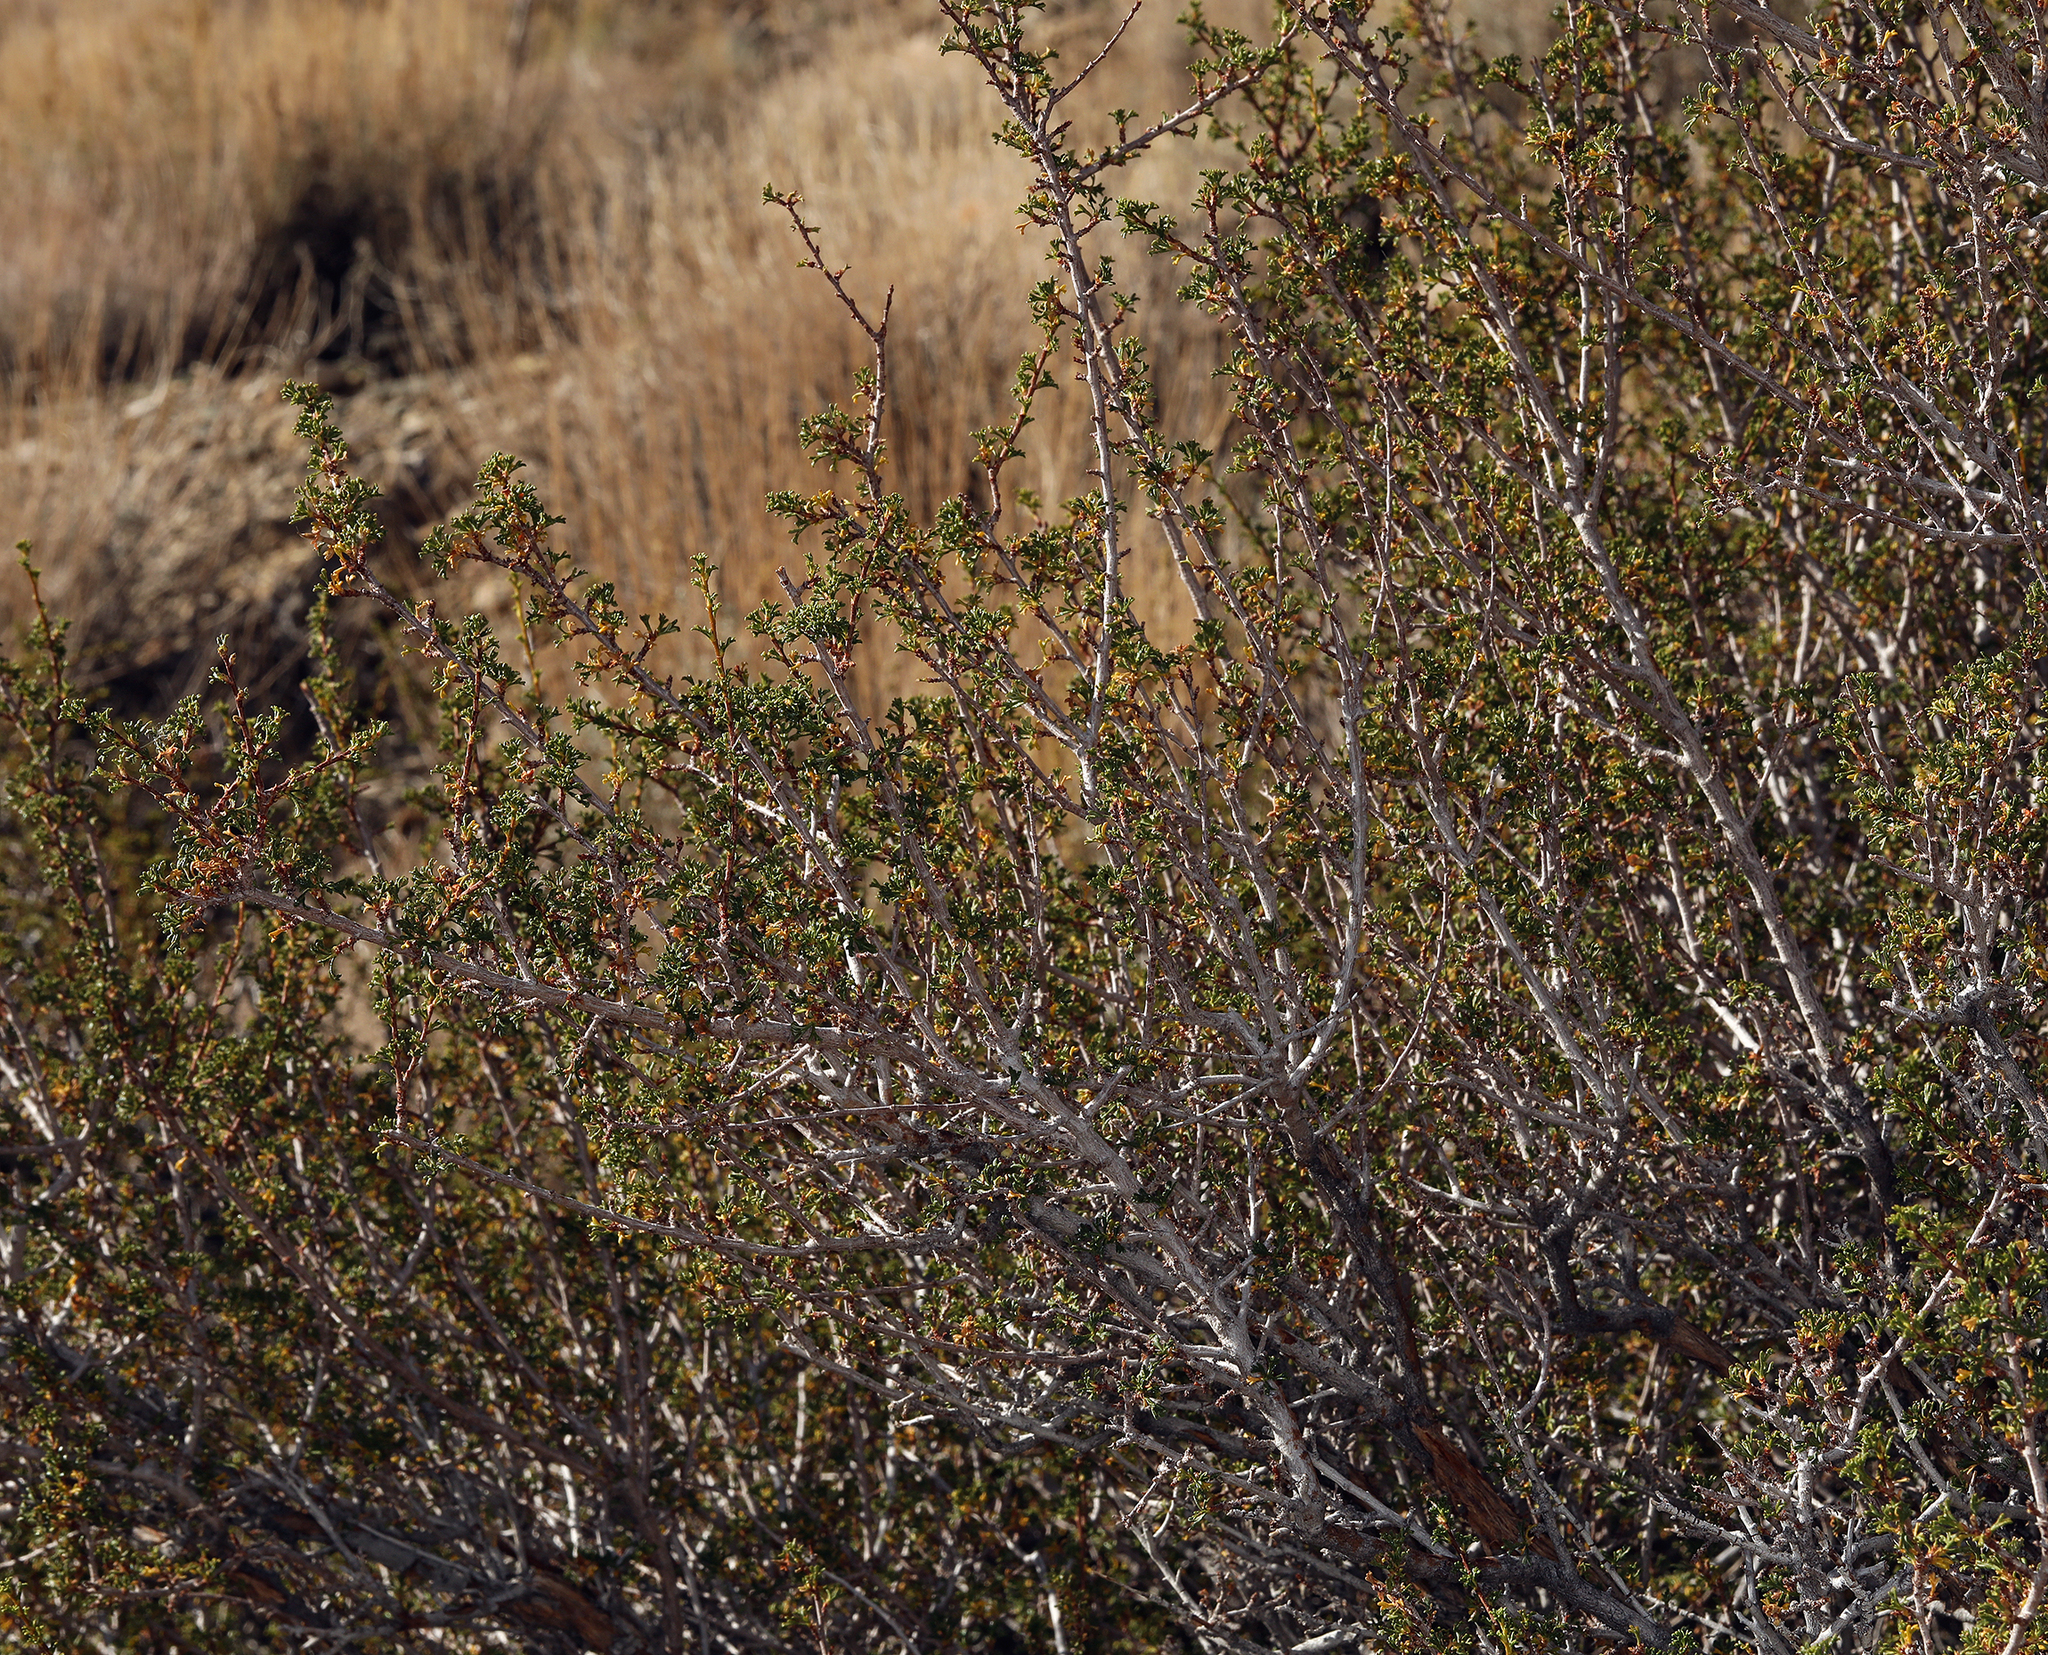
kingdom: Plantae
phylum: Tracheophyta
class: Magnoliopsida
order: Rosales
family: Rosaceae
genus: Purshia
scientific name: Purshia glandulosa
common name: Desert bitterbrush
